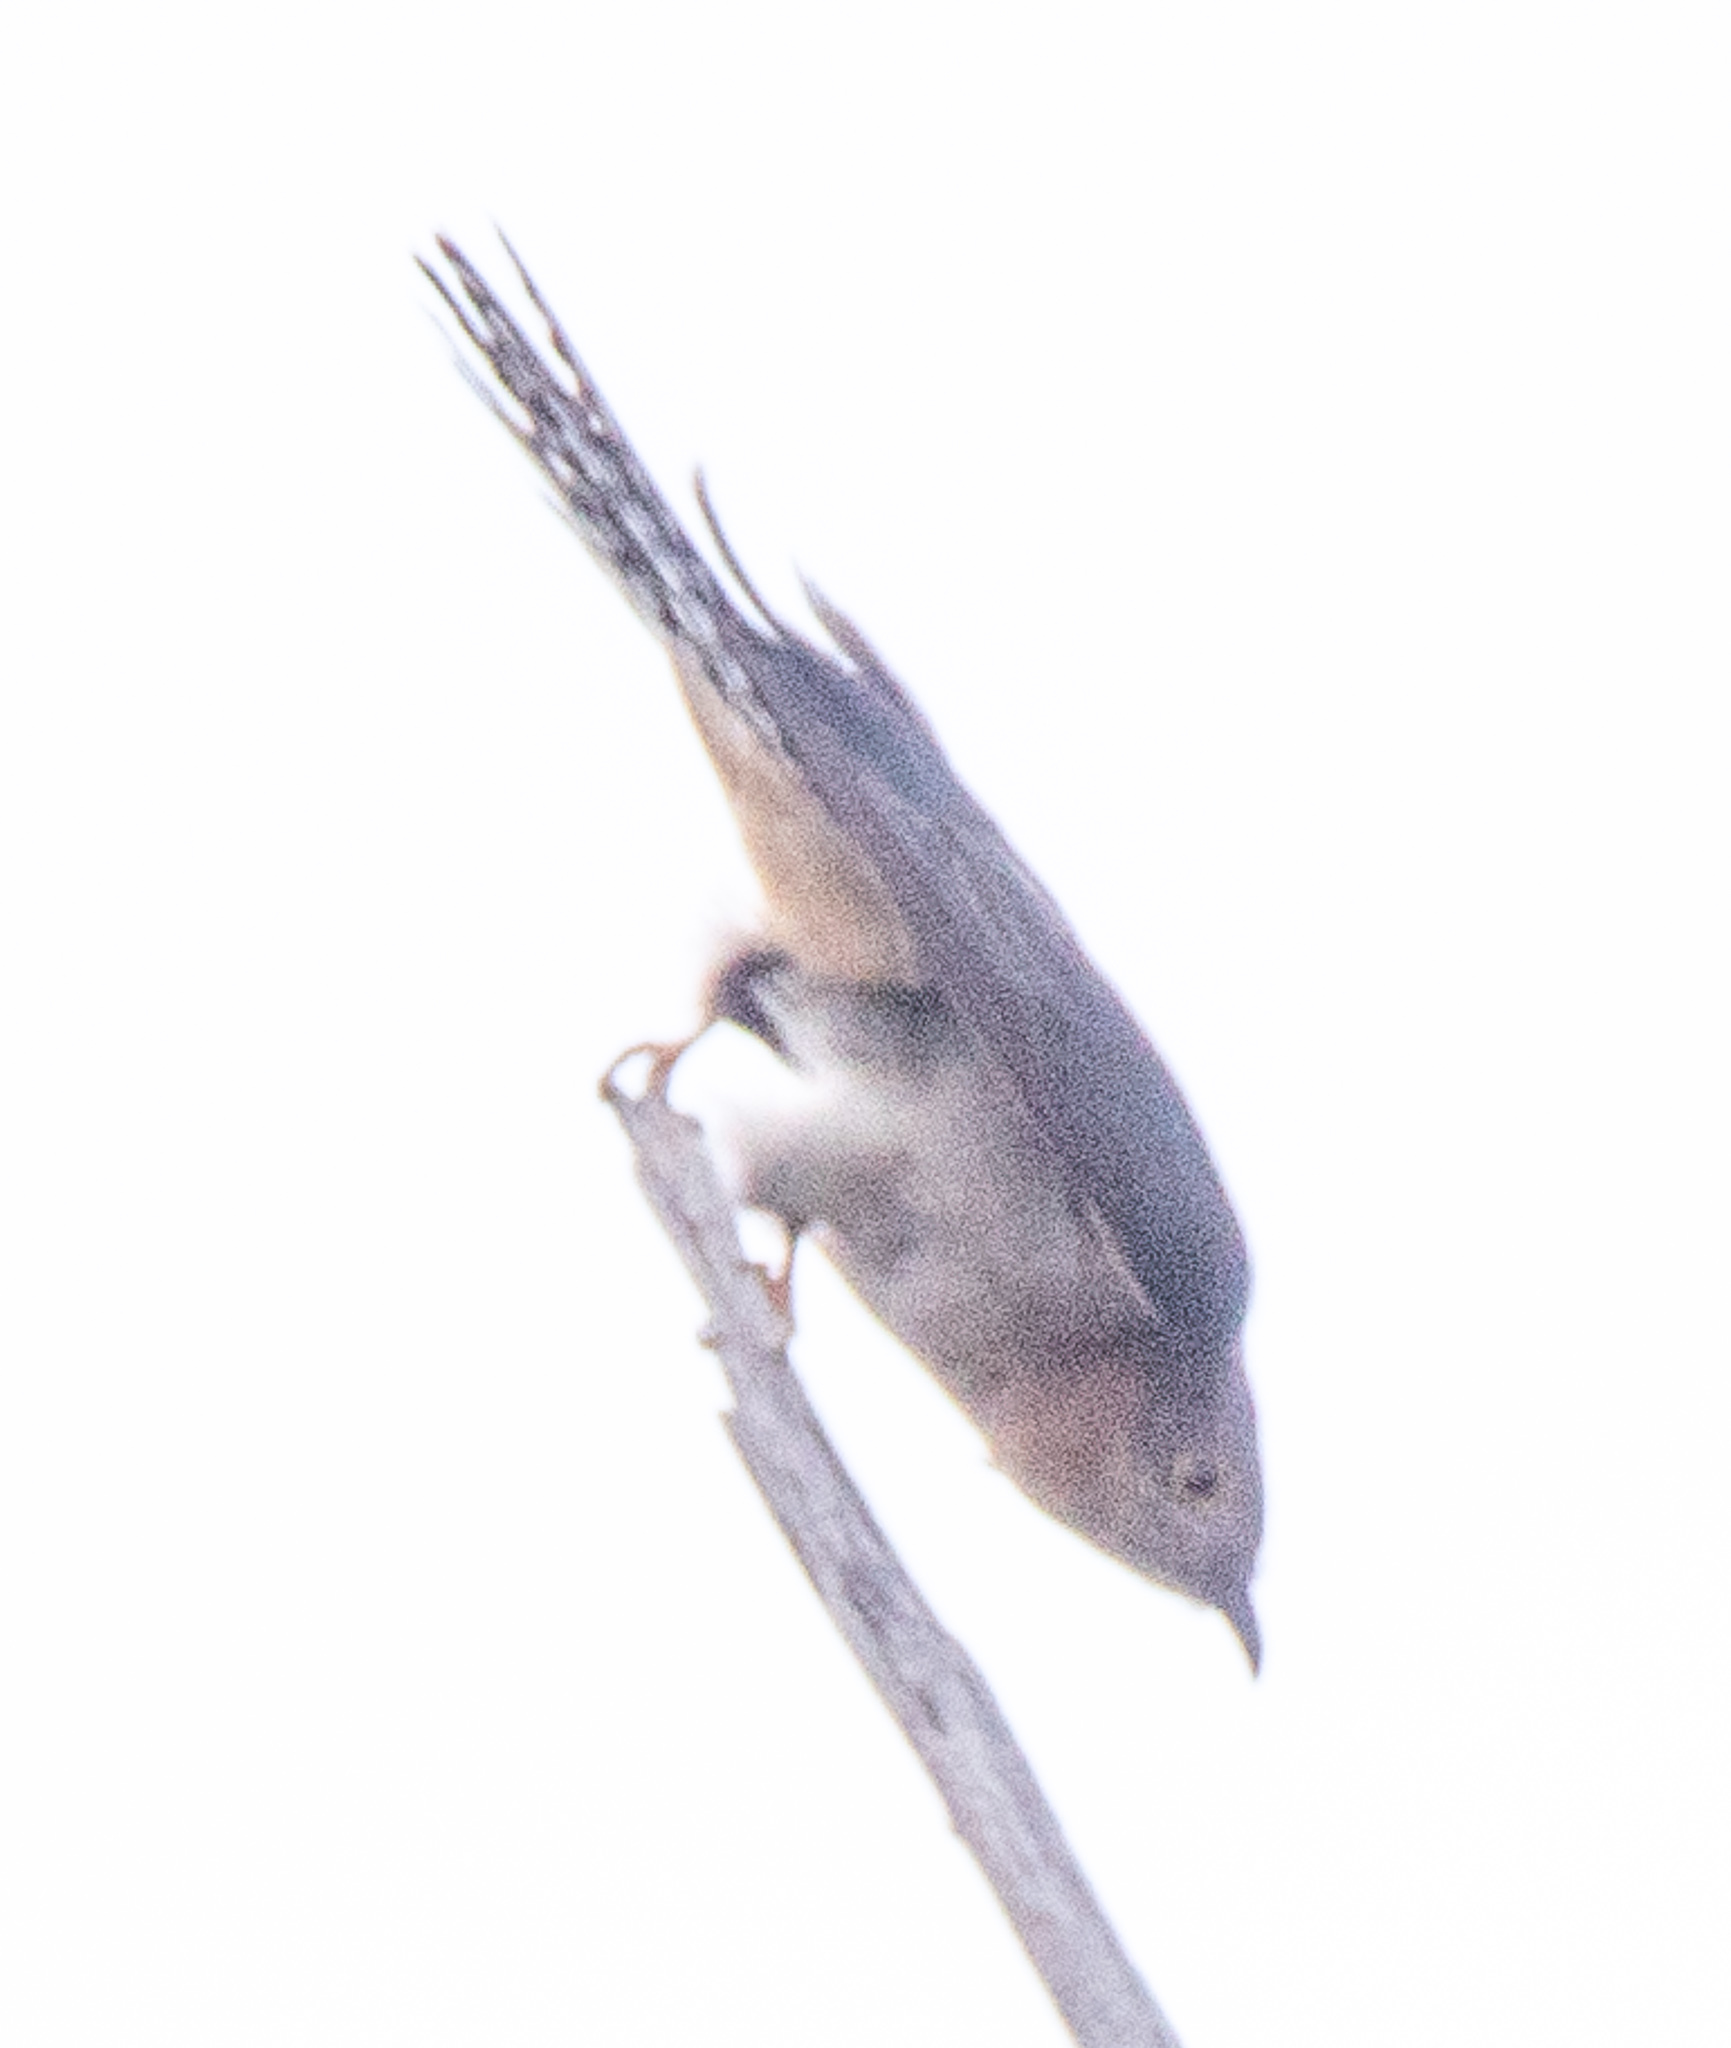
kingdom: Animalia
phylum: Chordata
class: Aves
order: Cuculiformes
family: Cuculidae
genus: Cacomantis
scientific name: Cacomantis flabelliformis
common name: Fan-tailed cuckoo
